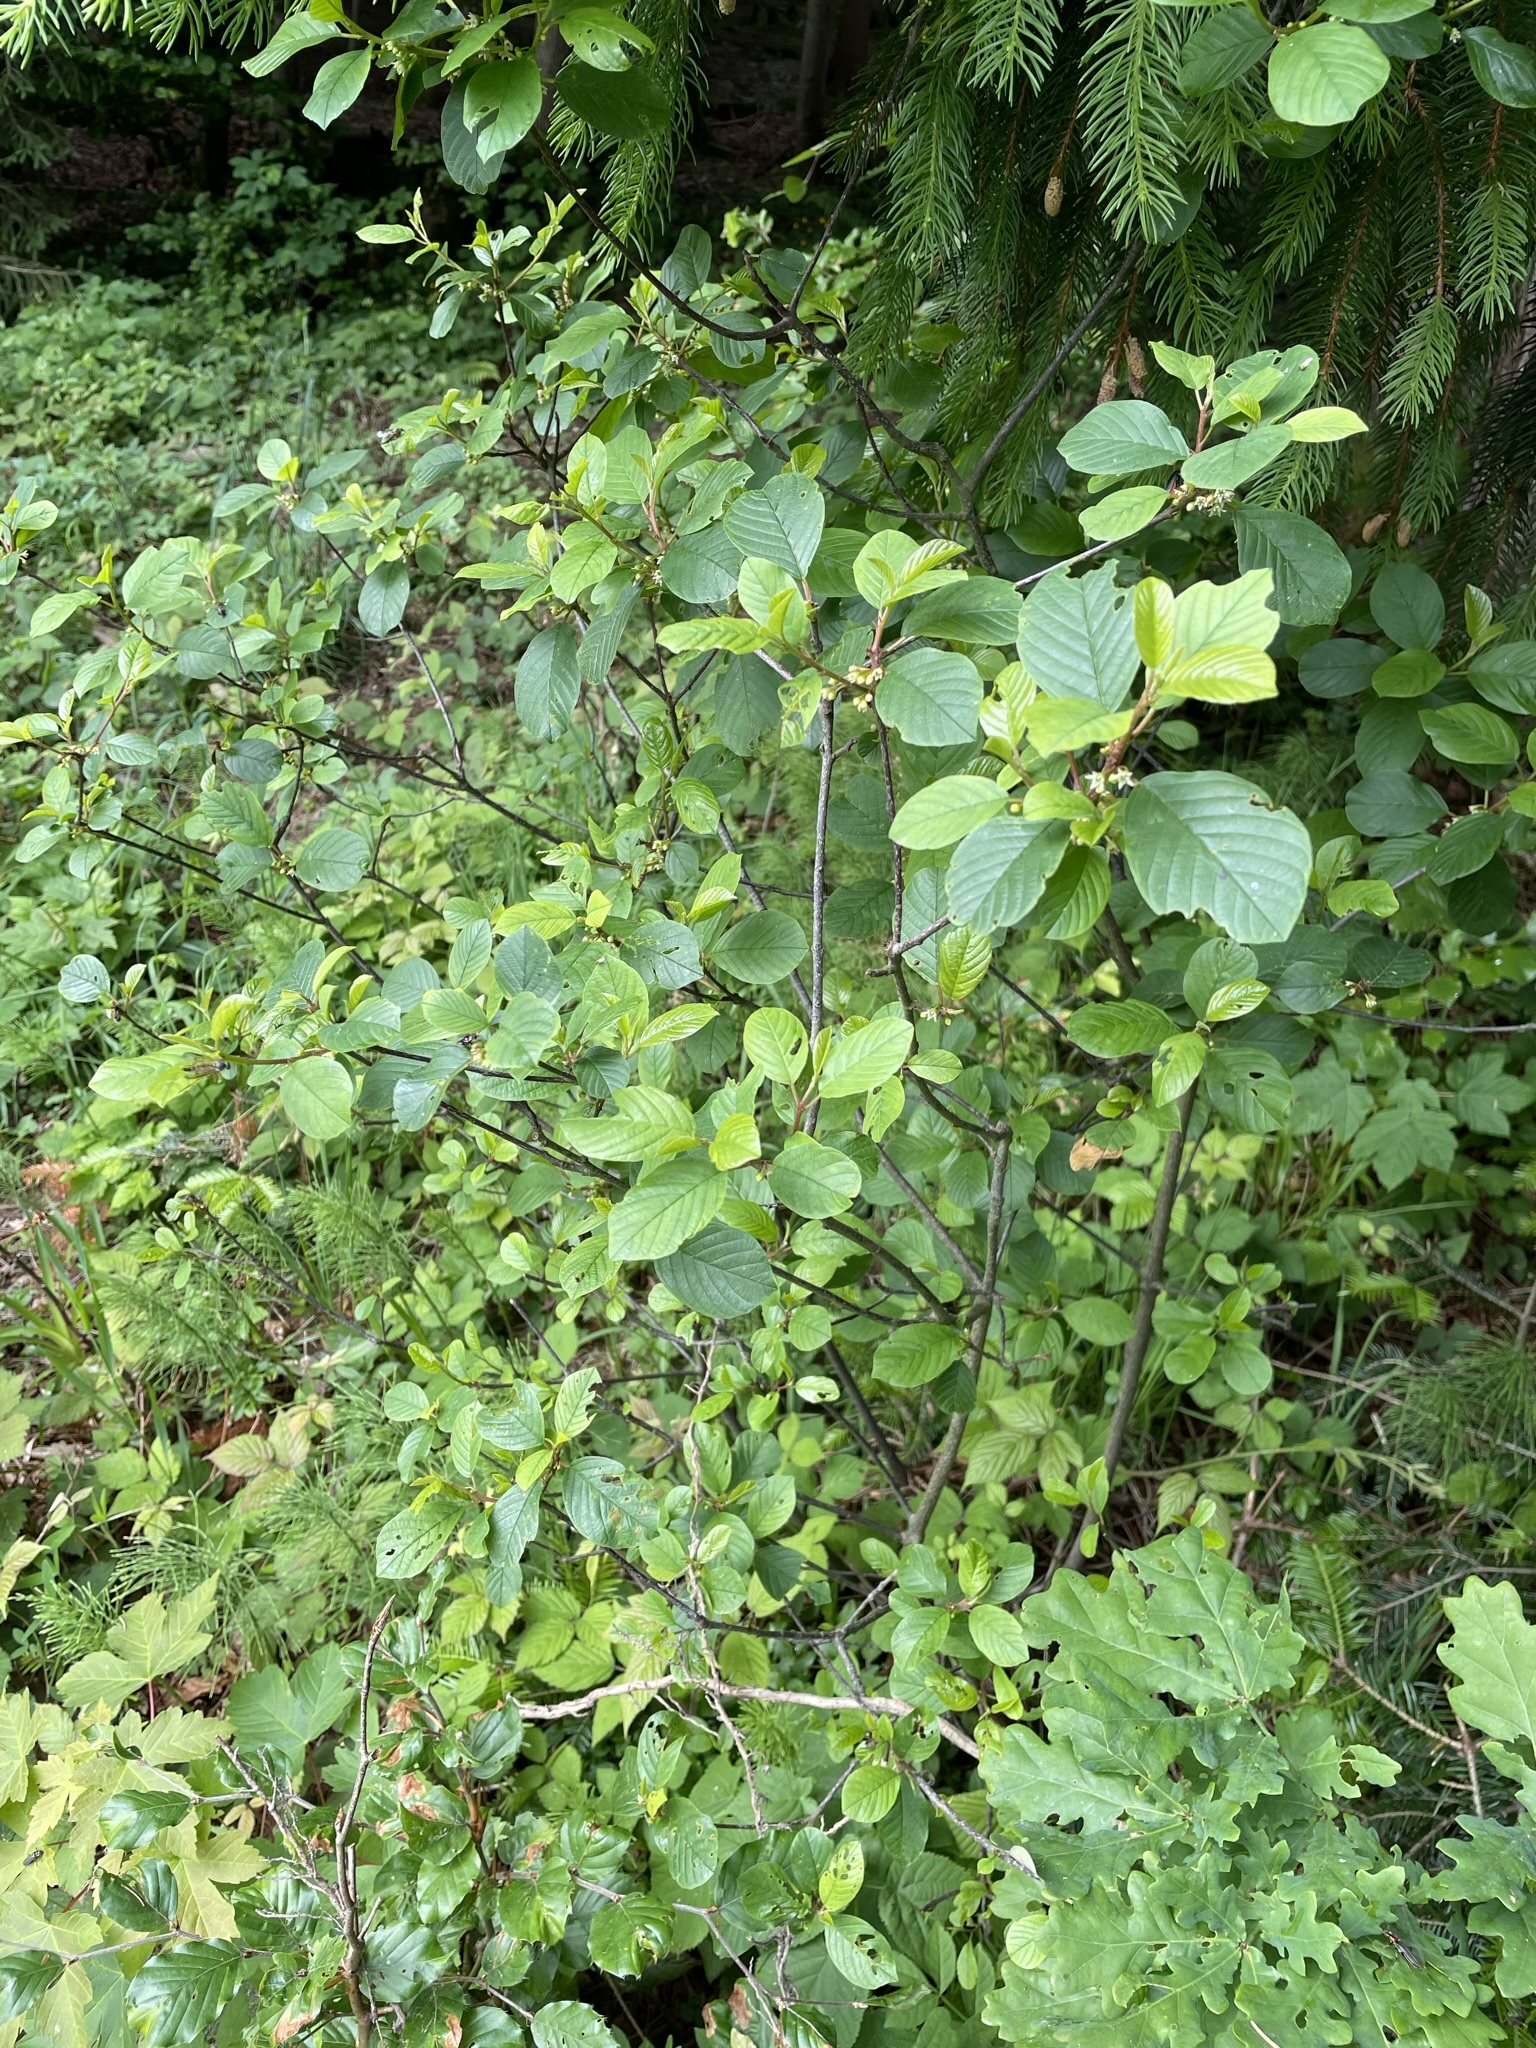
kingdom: Plantae
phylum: Tracheophyta
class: Magnoliopsida
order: Rosales
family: Rhamnaceae
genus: Frangula
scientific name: Frangula alnus
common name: Alder buckthorn
